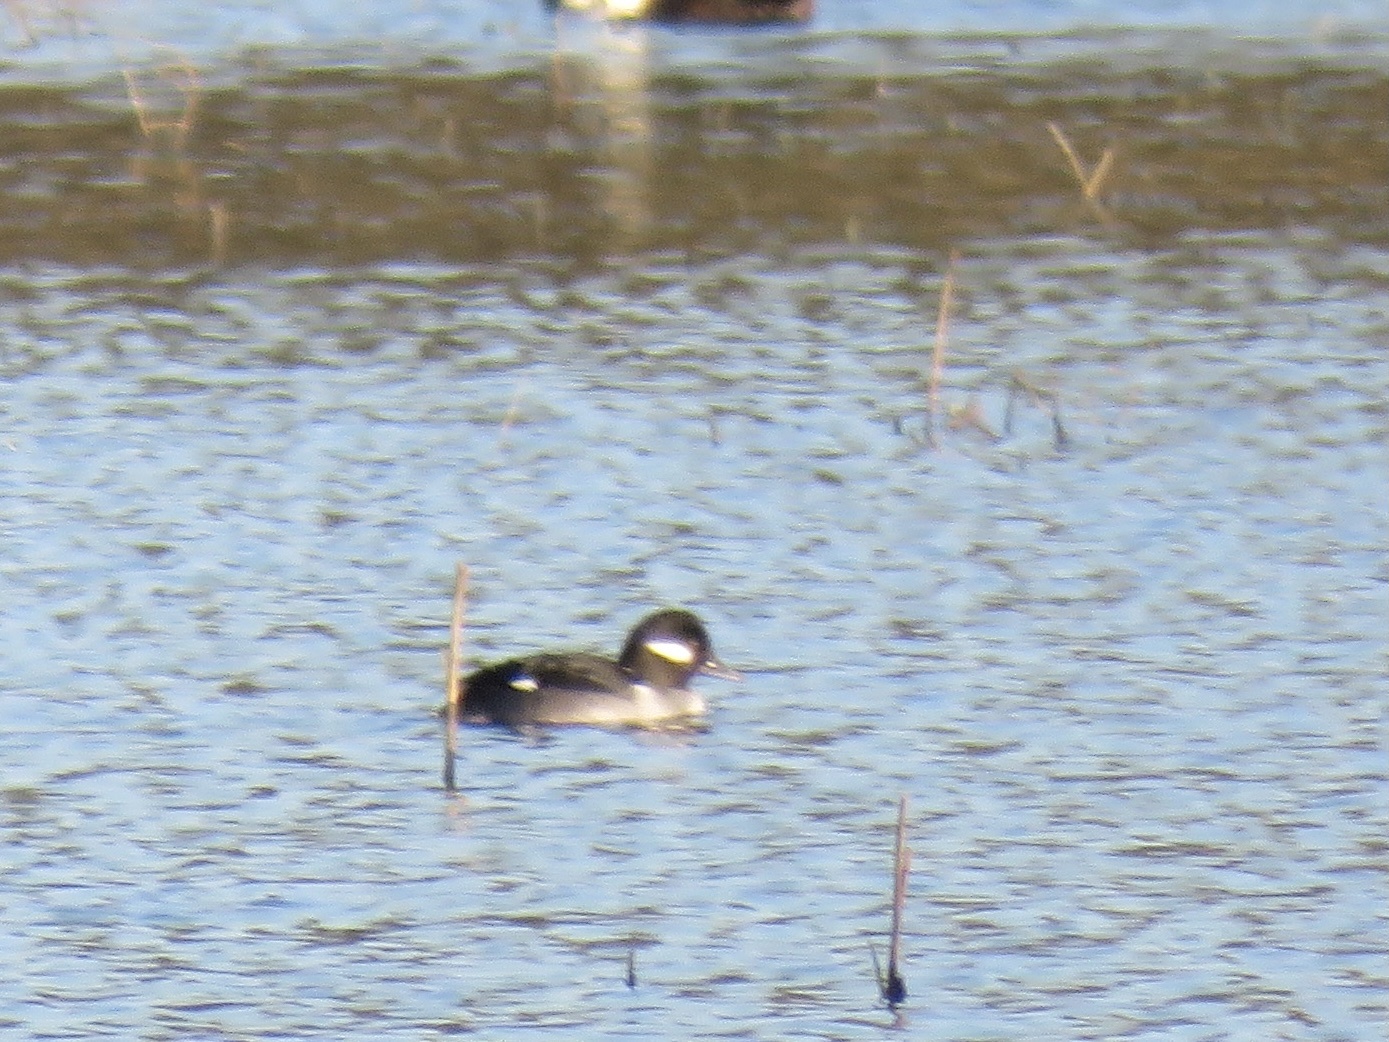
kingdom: Animalia
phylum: Chordata
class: Aves
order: Anseriformes
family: Anatidae
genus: Bucephala
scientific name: Bucephala albeola
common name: Bufflehead
